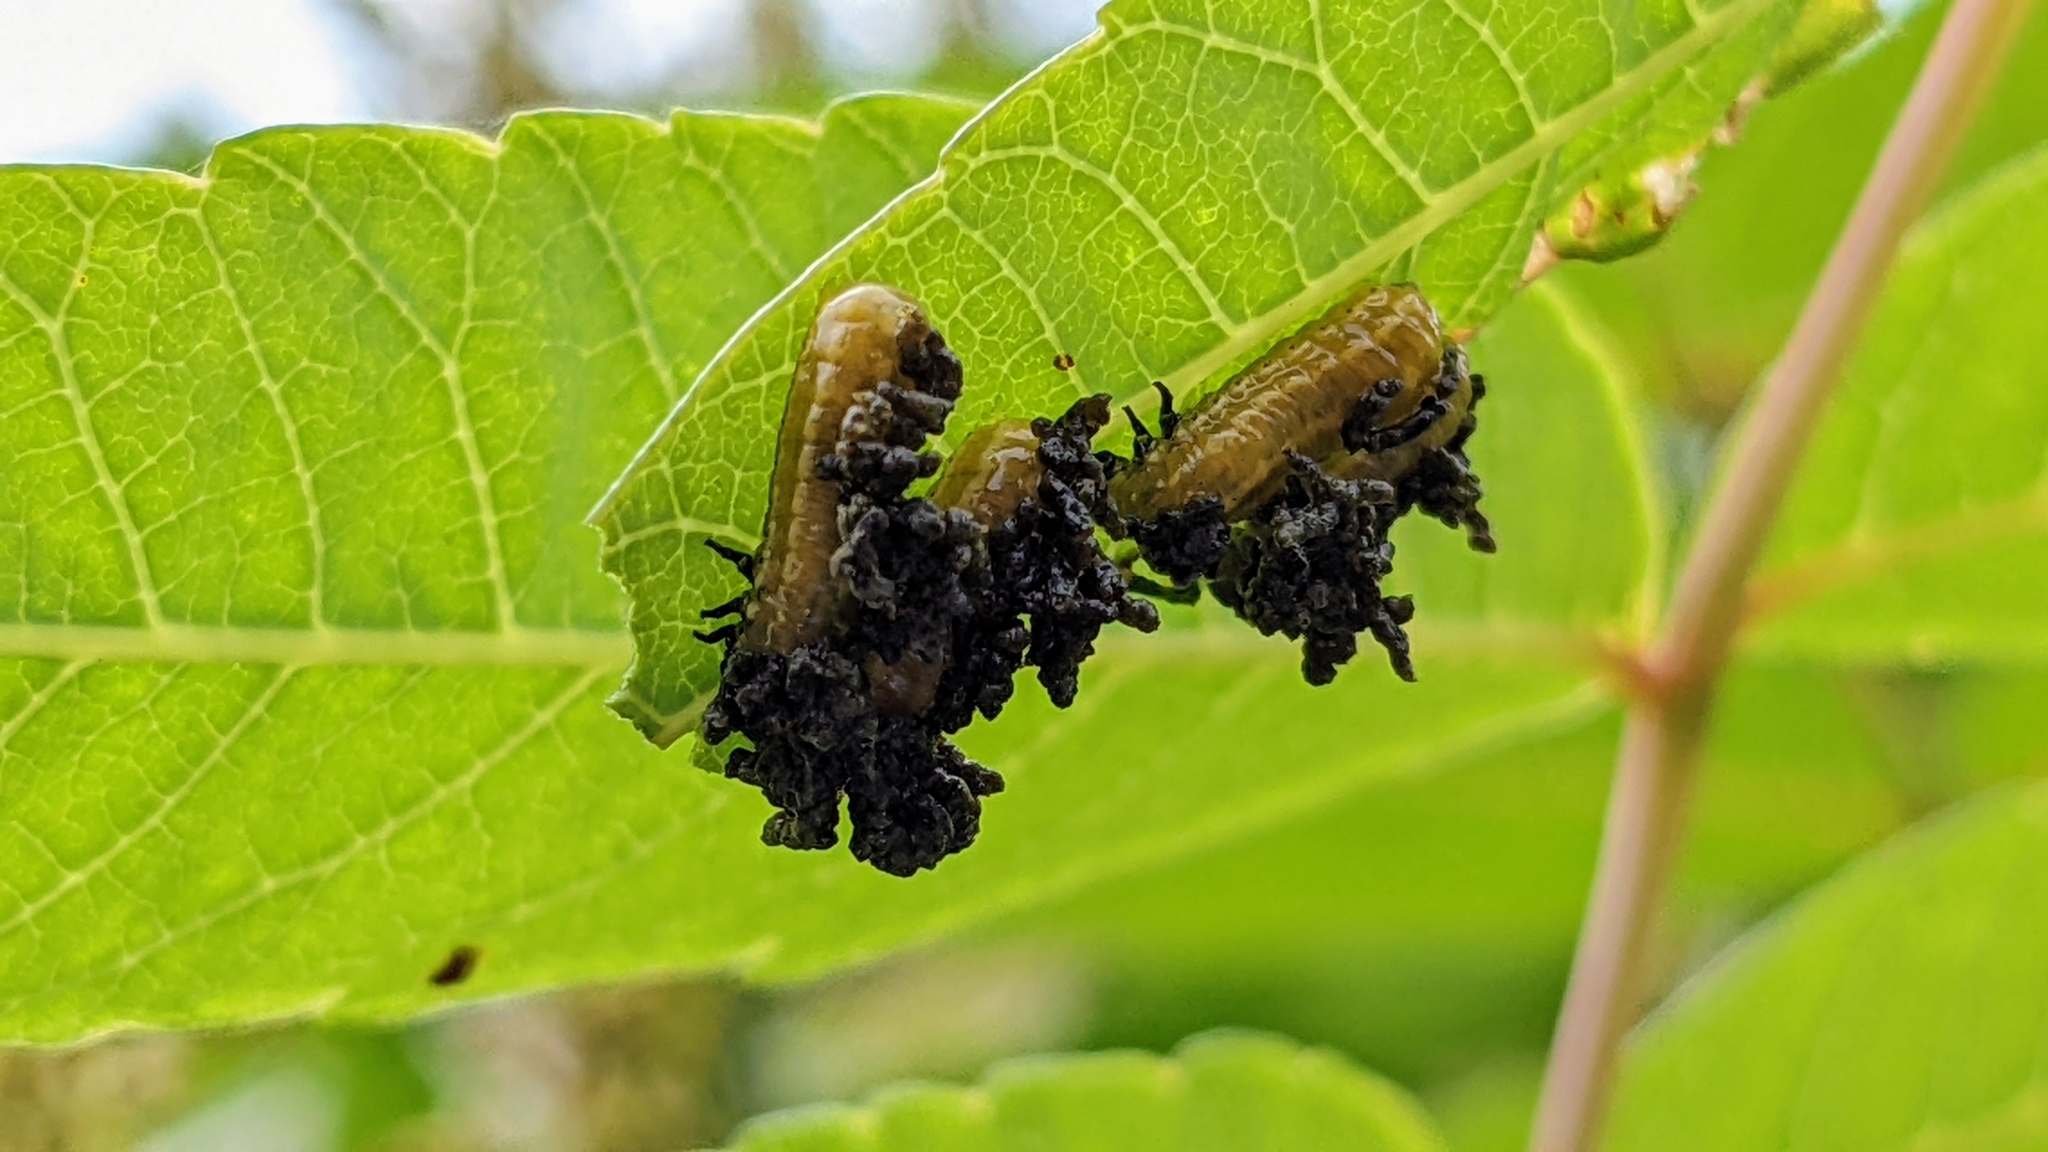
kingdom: Animalia
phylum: Arthropoda
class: Insecta
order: Coleoptera
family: Chrysomelidae
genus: Blepharida
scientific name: Blepharida rhois
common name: Sumac flea beetle
